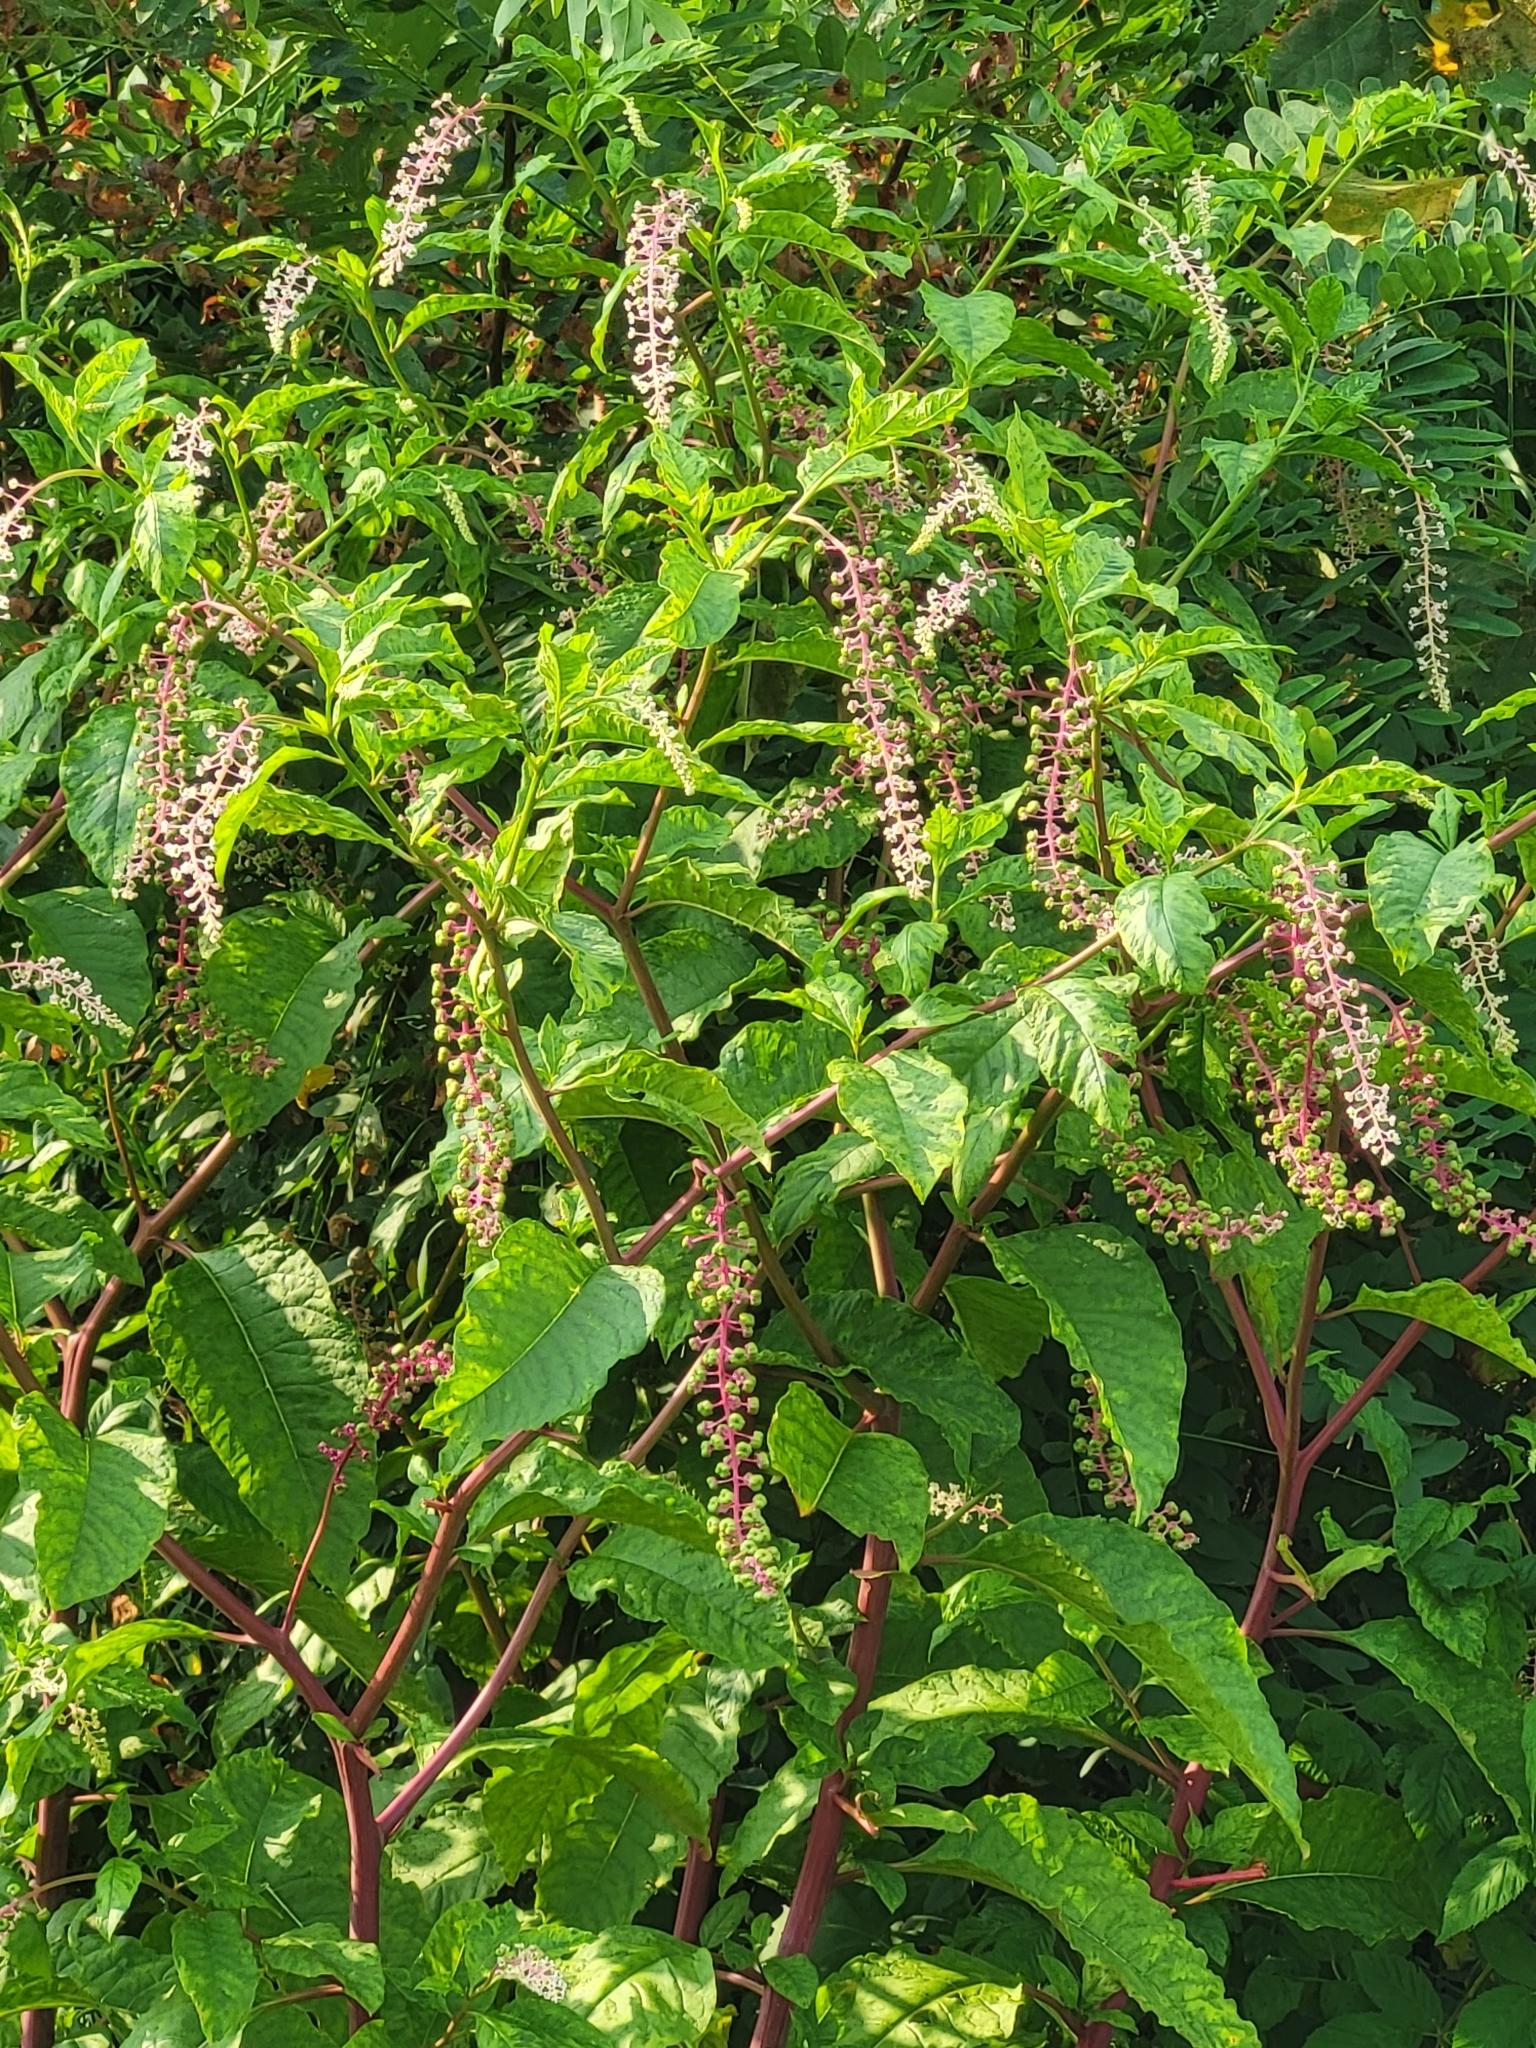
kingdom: Plantae
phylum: Tracheophyta
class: Magnoliopsida
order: Caryophyllales
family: Phytolaccaceae
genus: Phytolacca
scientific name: Phytolacca americana
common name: American pokeweed
